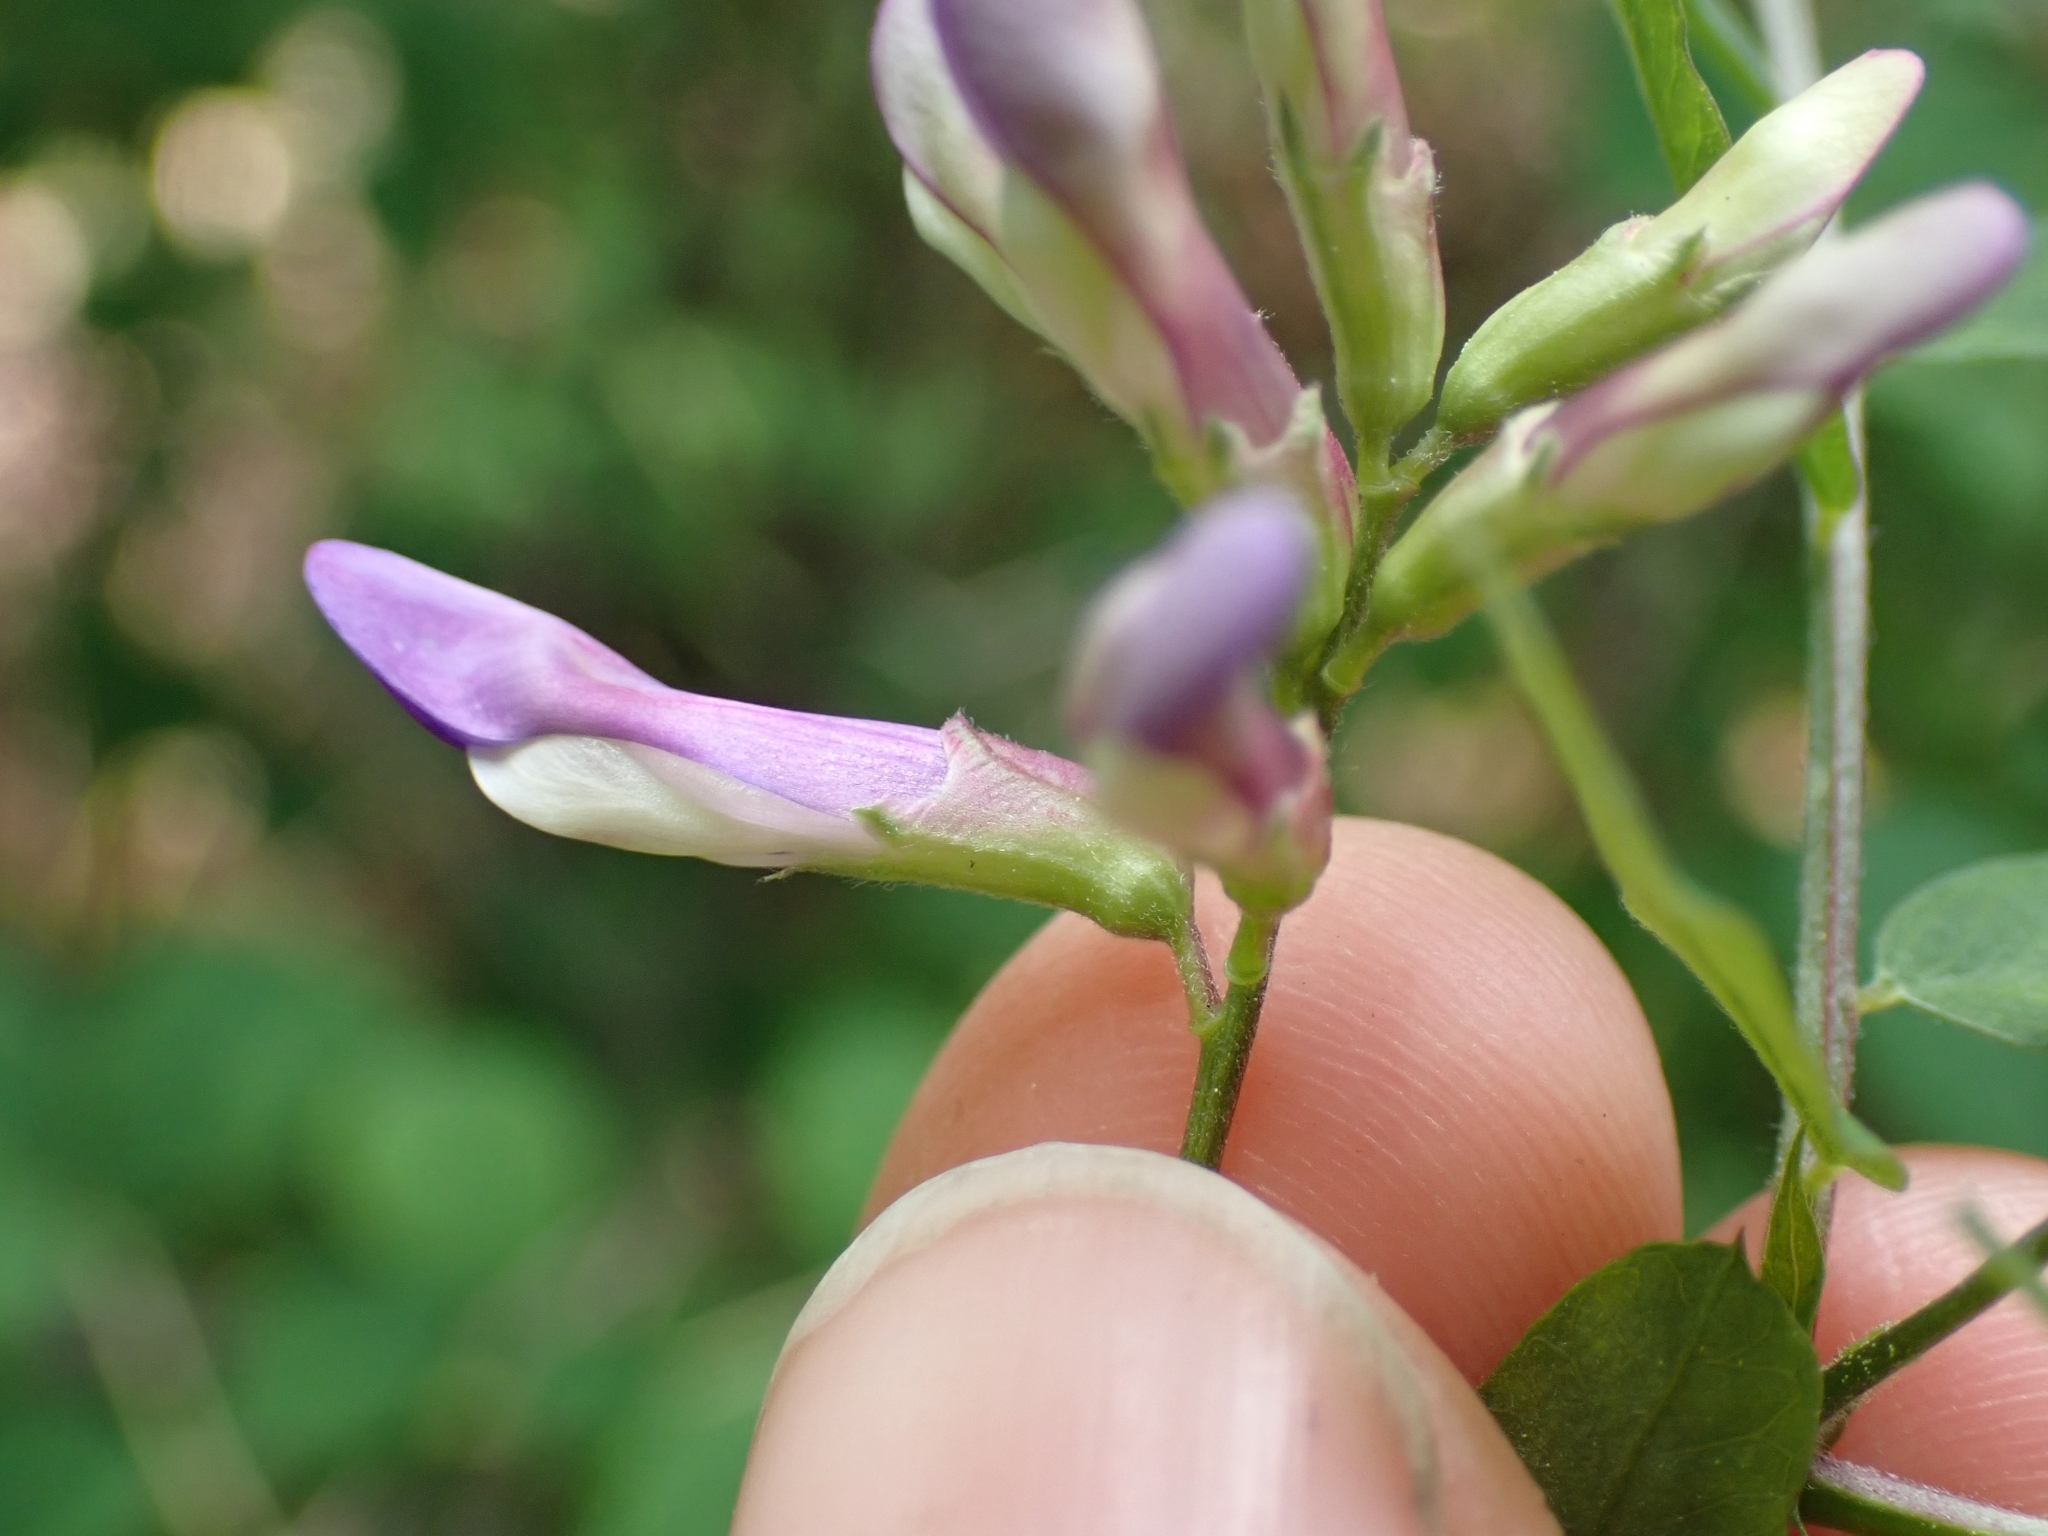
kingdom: Plantae
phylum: Tracheophyta
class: Magnoliopsida
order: Fabales
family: Fabaceae
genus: Vicia
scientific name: Vicia americana
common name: American vetch
